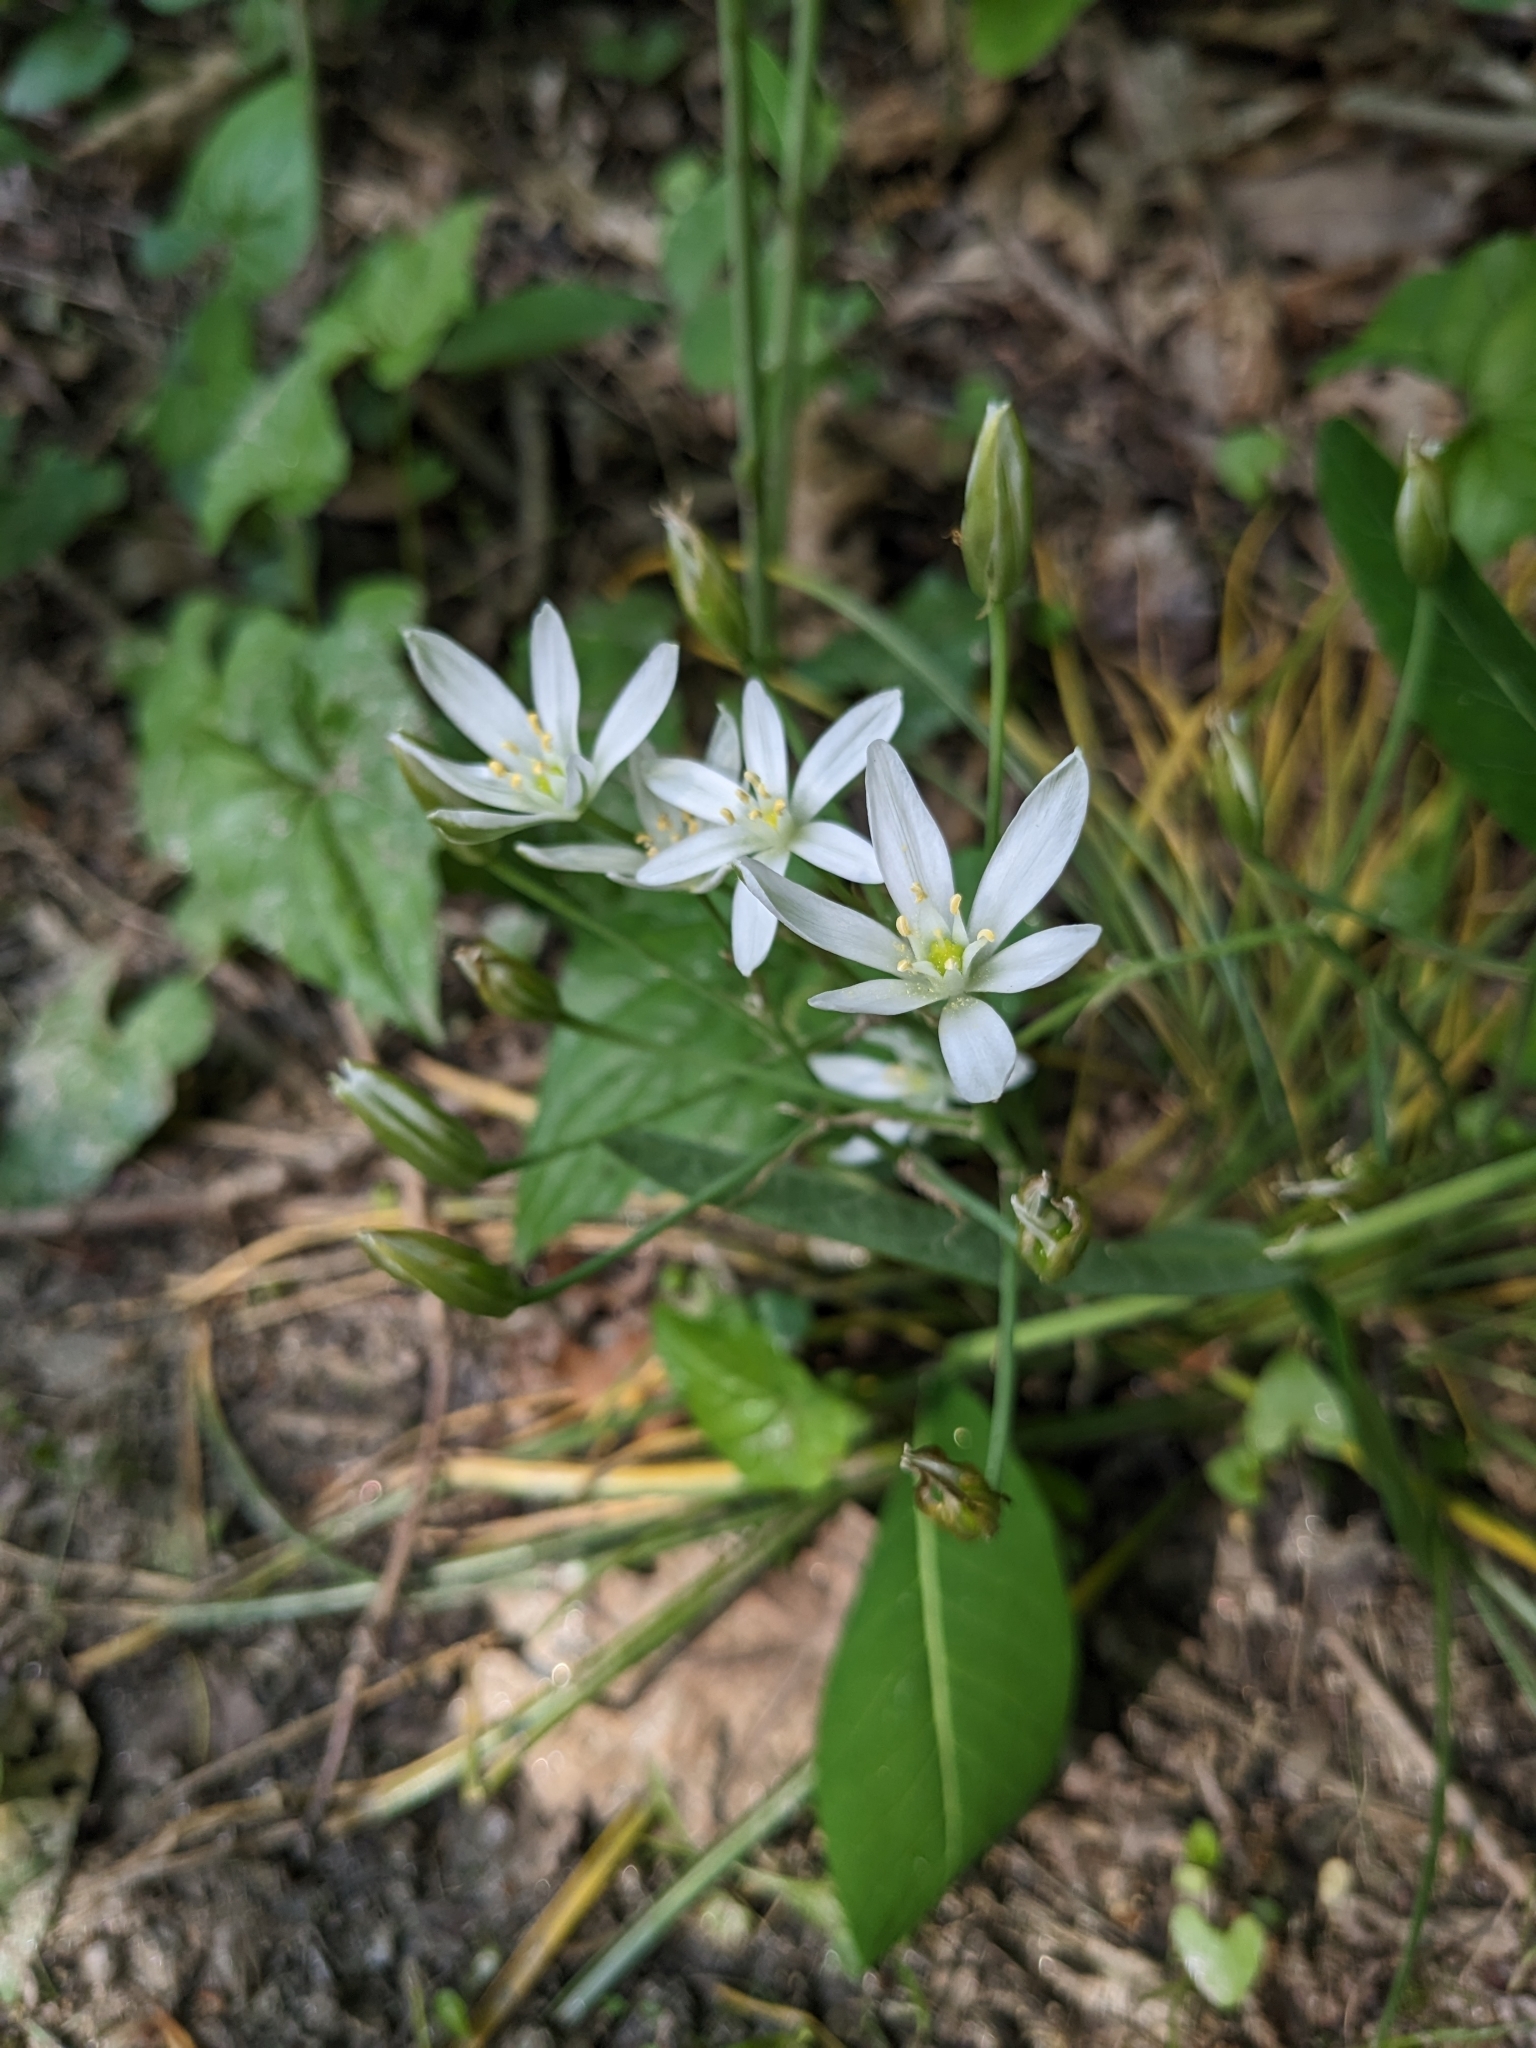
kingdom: Plantae
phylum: Tracheophyta
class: Liliopsida
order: Asparagales
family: Asparagaceae
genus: Ornithogalum
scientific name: Ornithogalum umbellatum
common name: Garden star-of-bethlehem
